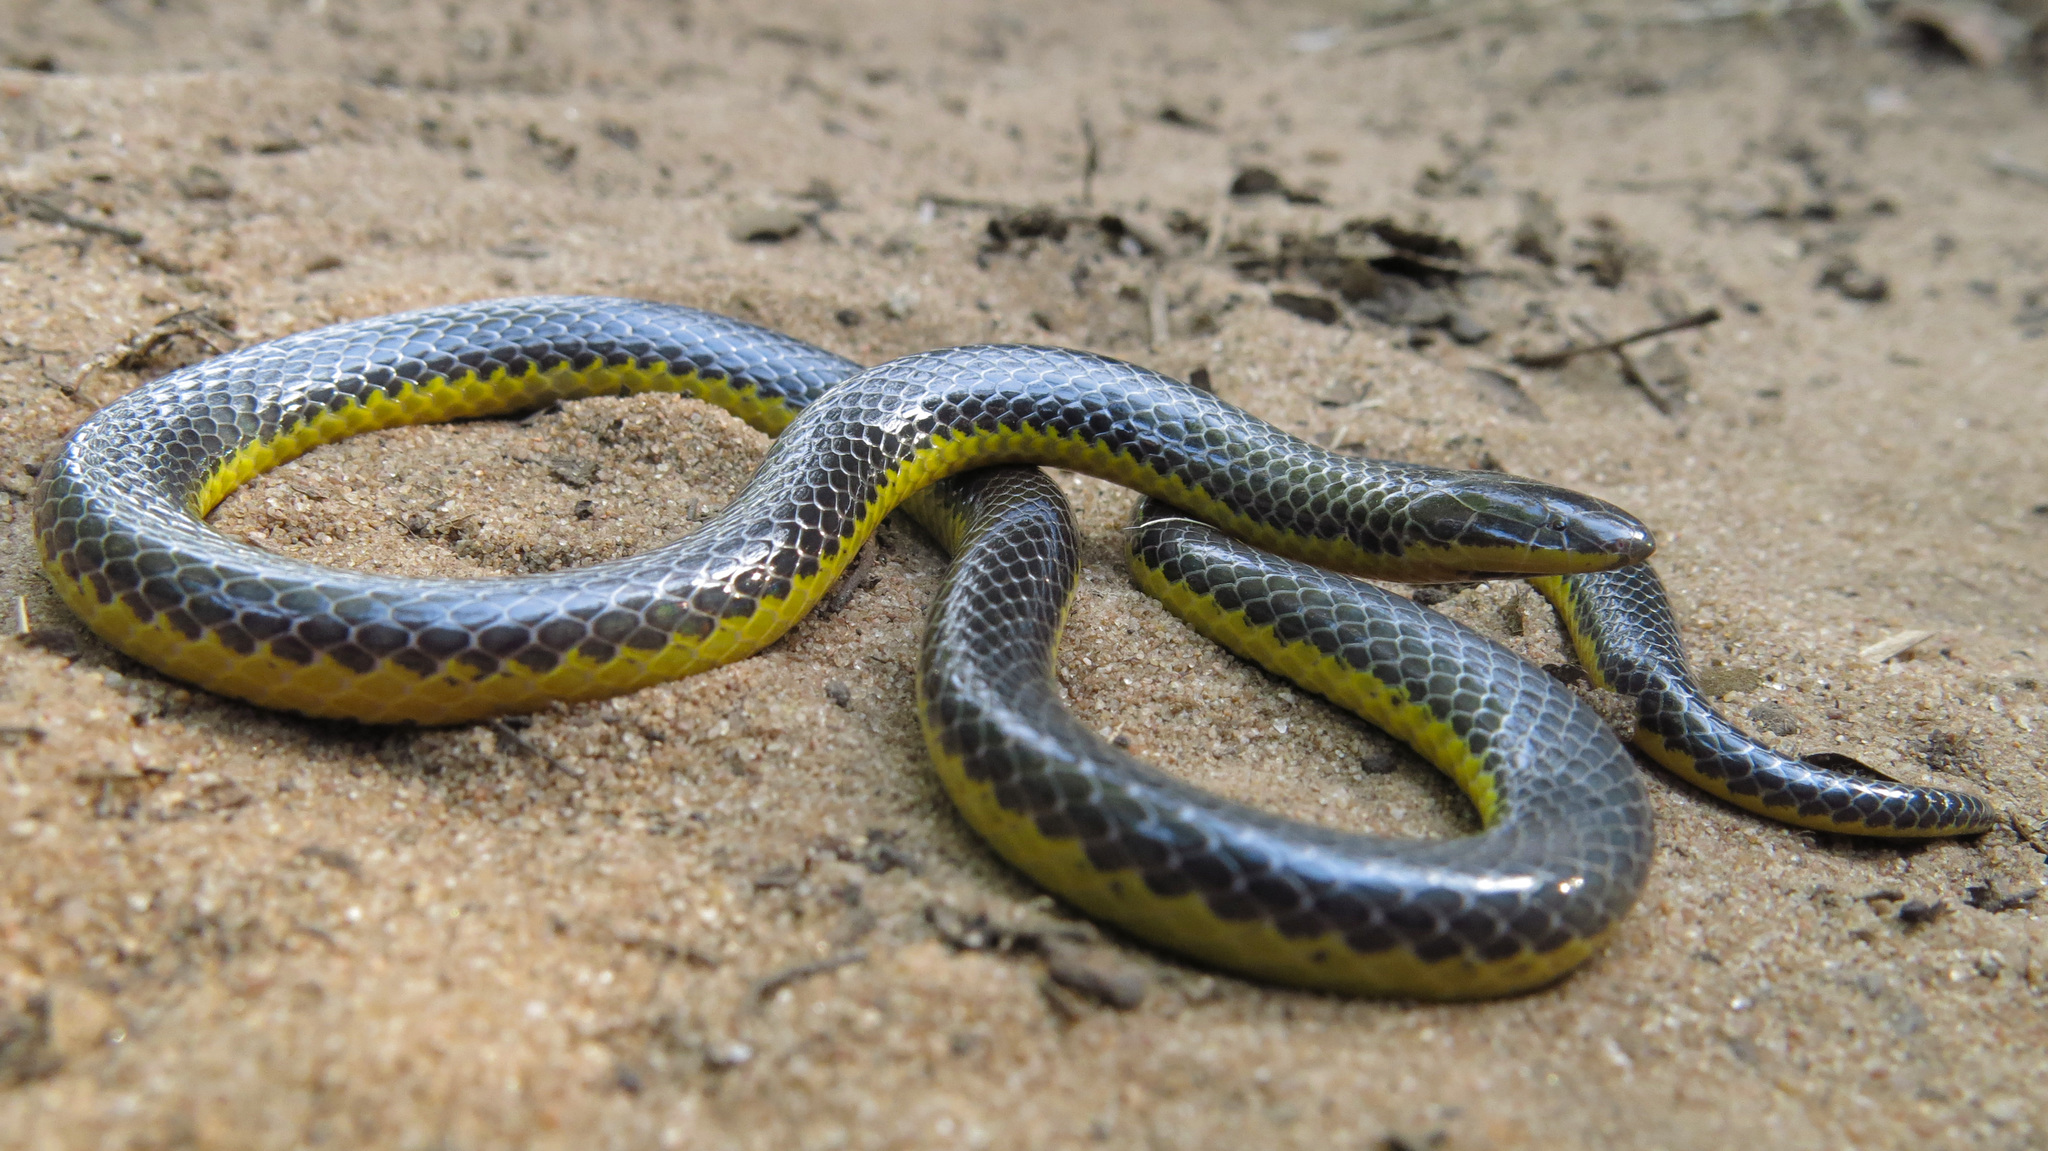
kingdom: Animalia
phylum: Chordata
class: Squamata
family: Atractaspididae
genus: Amblyodipsas
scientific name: Amblyodipsas microphthalma
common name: Eastern purple-glossed snake
